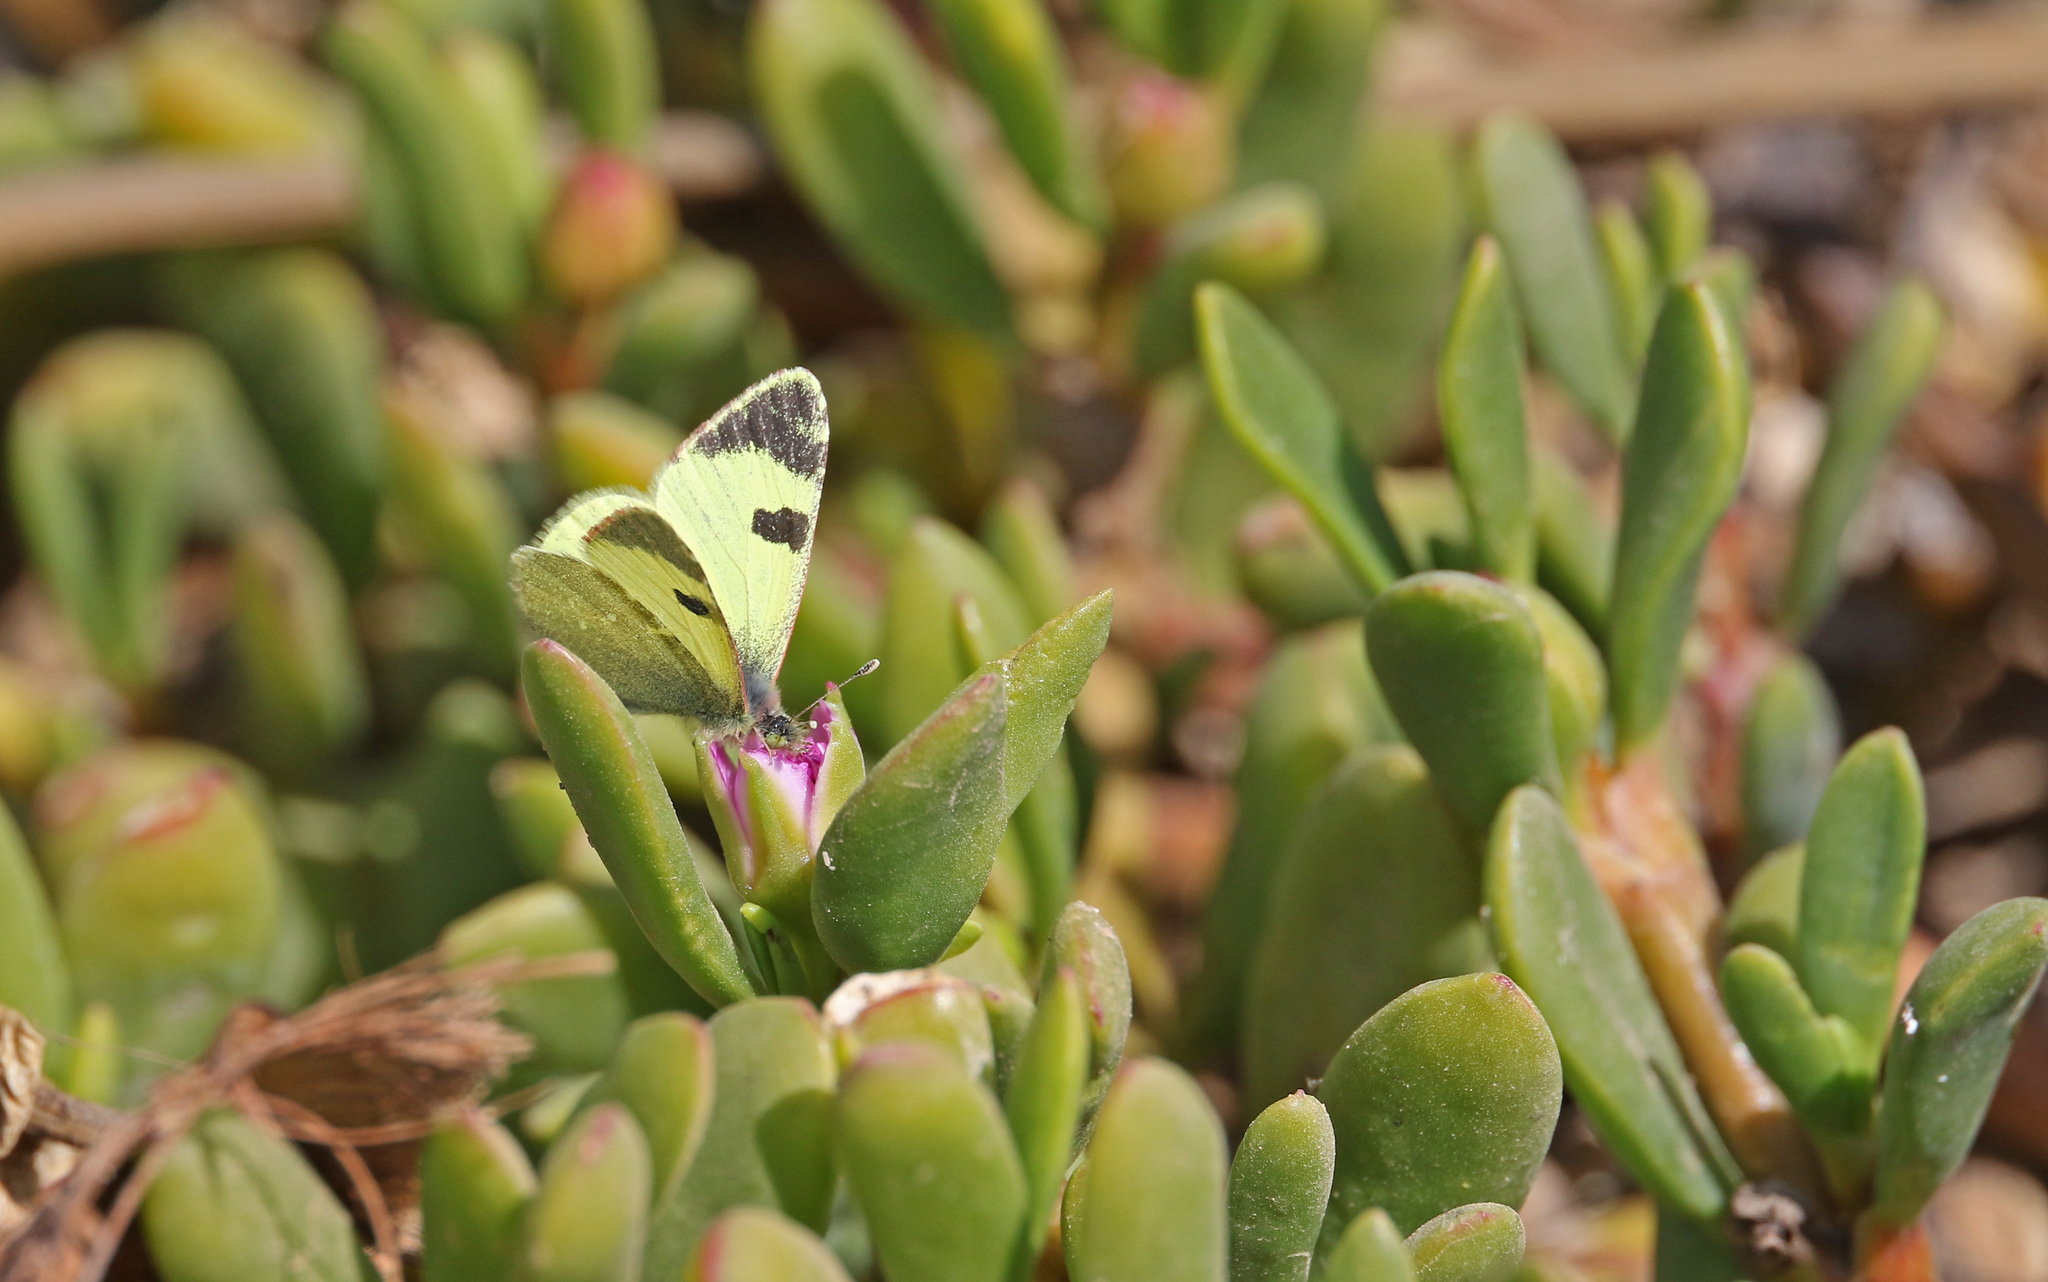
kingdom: Animalia
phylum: Arthropoda
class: Insecta
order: Lepidoptera
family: Pieridae
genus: Elphinstonia
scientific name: Elphinstonia charlonia
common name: Greenish black-tip
